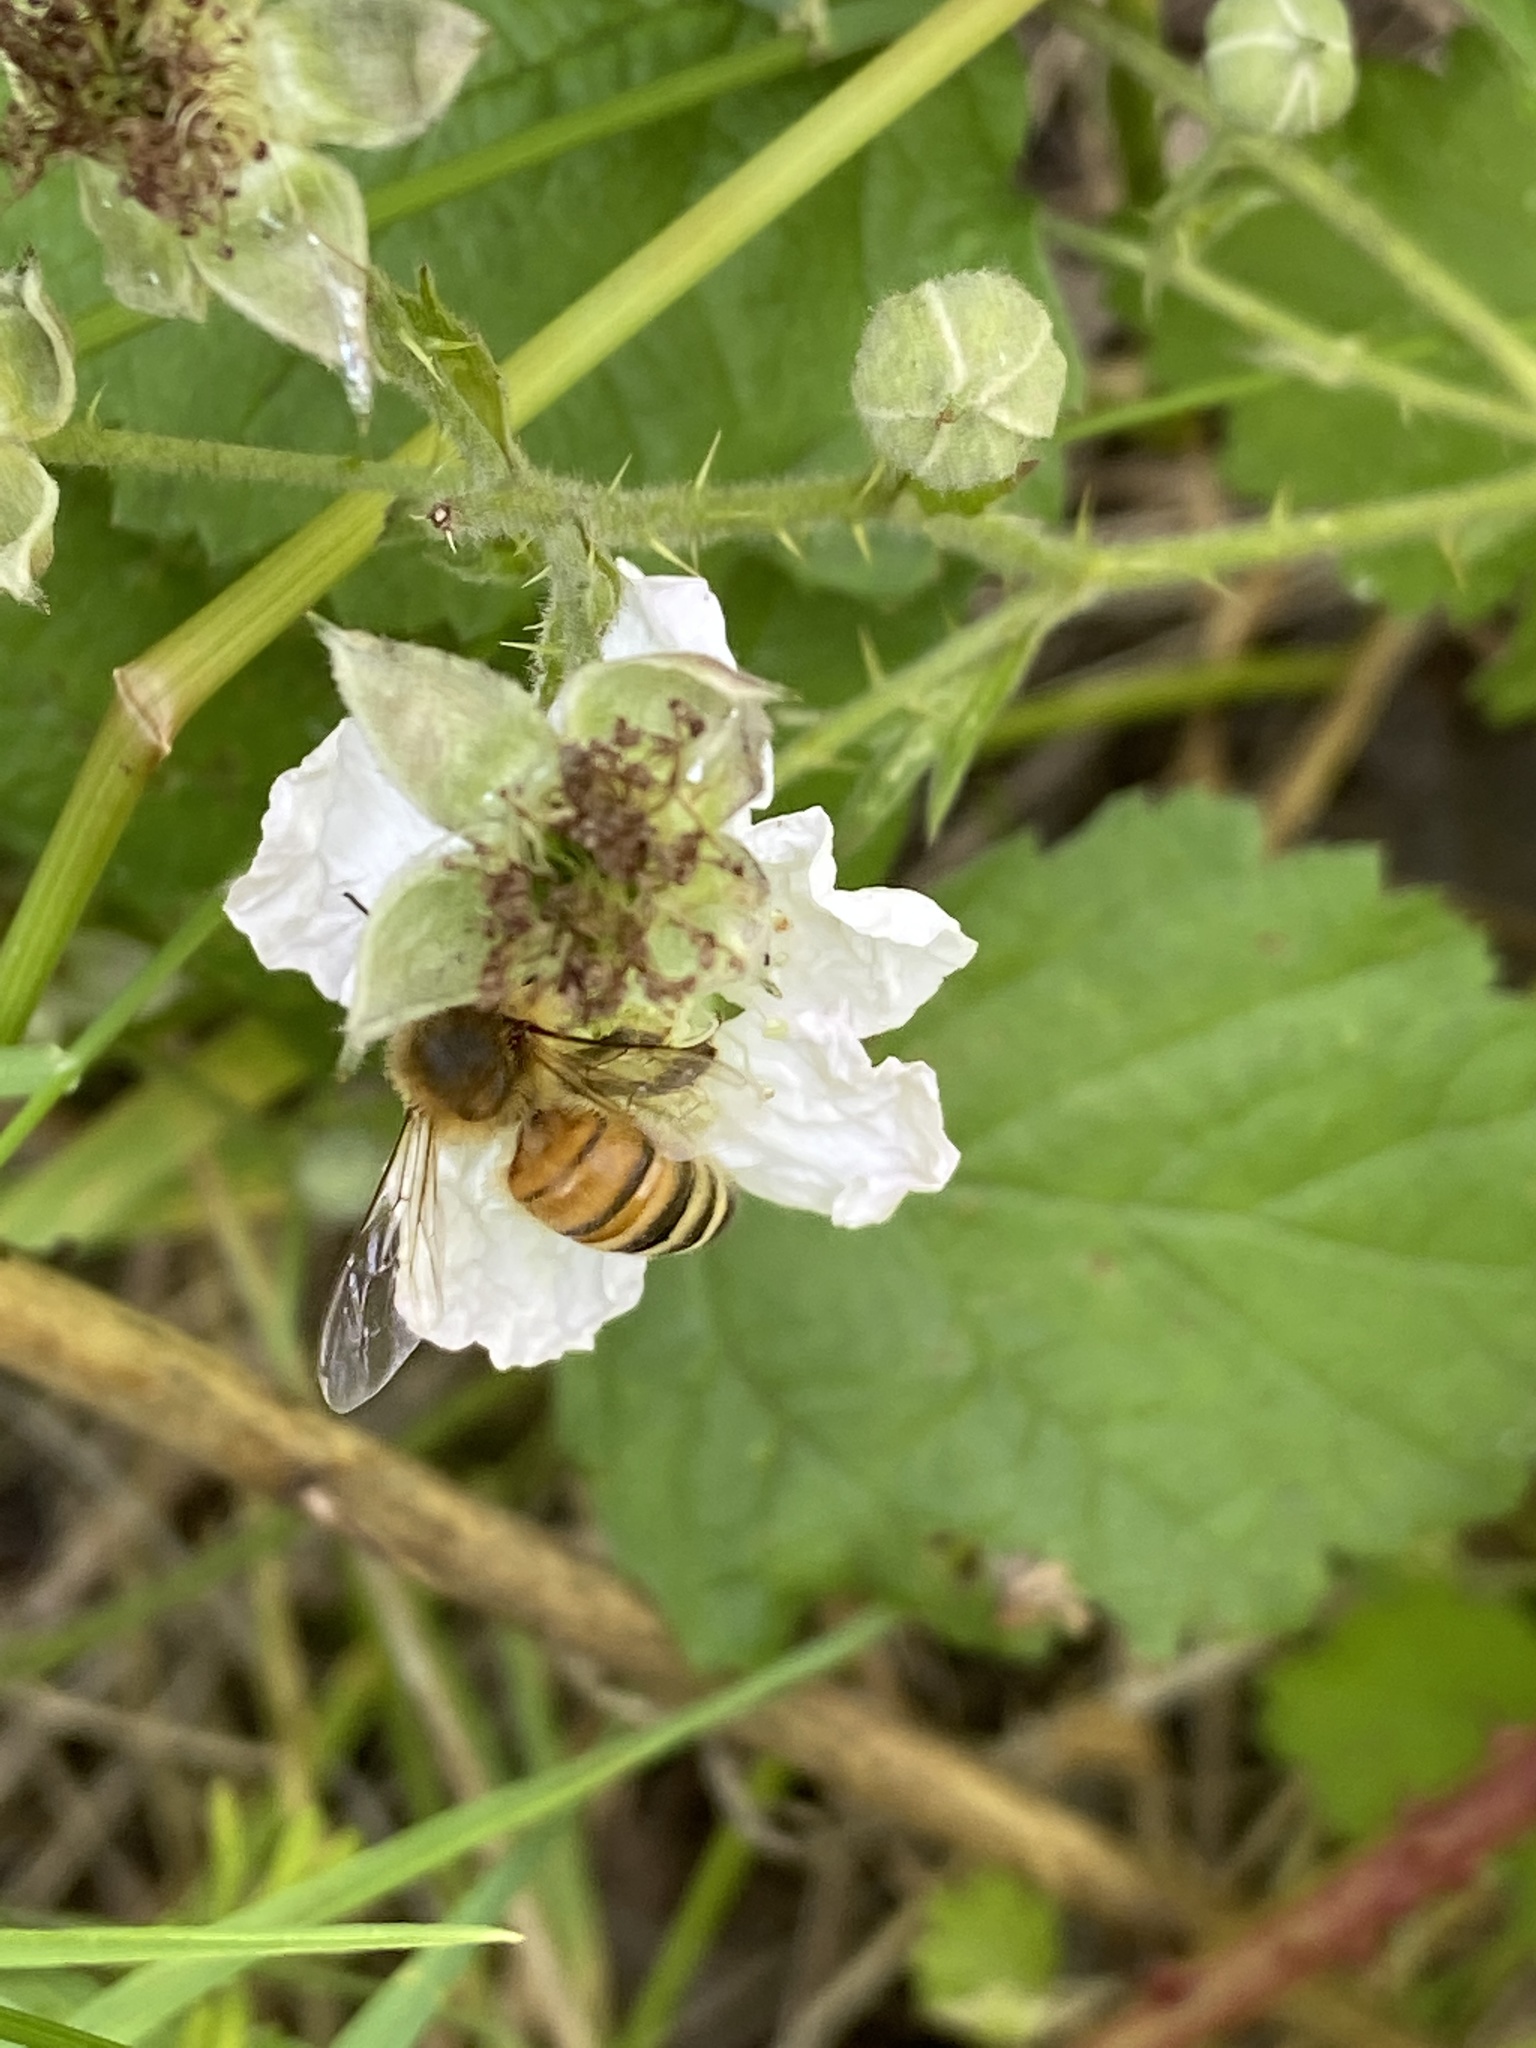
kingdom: Animalia
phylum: Arthropoda
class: Insecta
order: Hymenoptera
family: Apidae
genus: Apis
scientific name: Apis mellifera
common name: Honey bee
